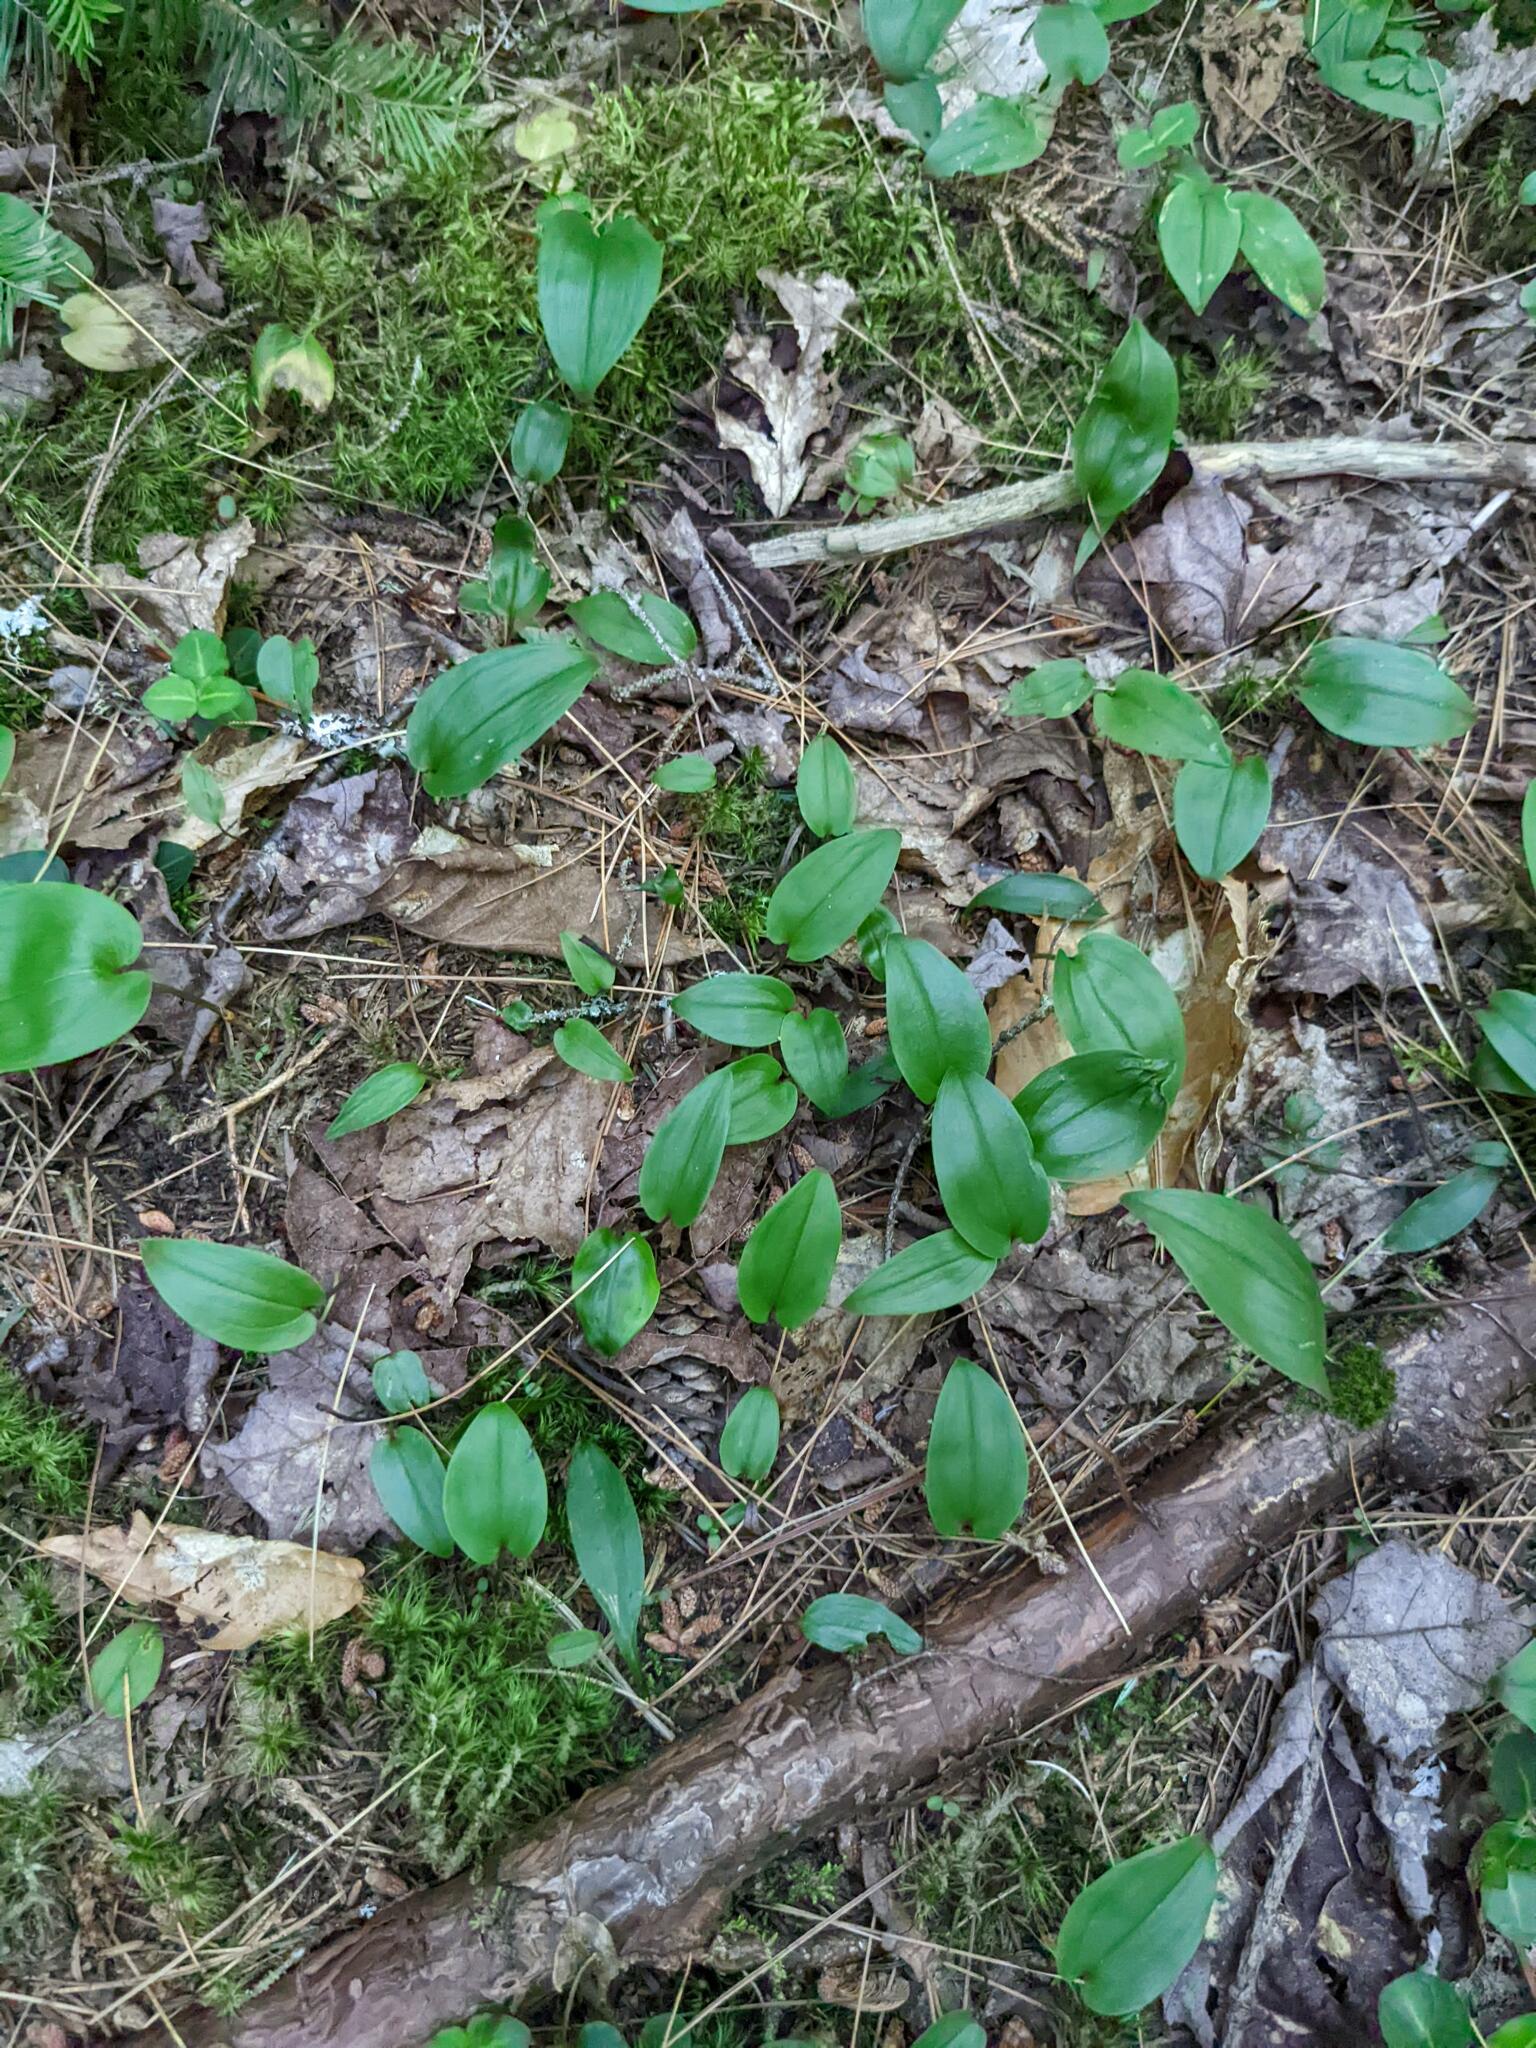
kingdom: Plantae
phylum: Tracheophyta
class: Liliopsida
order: Asparagales
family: Asparagaceae
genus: Maianthemum
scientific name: Maianthemum canadense
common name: False lily-of-the-valley
